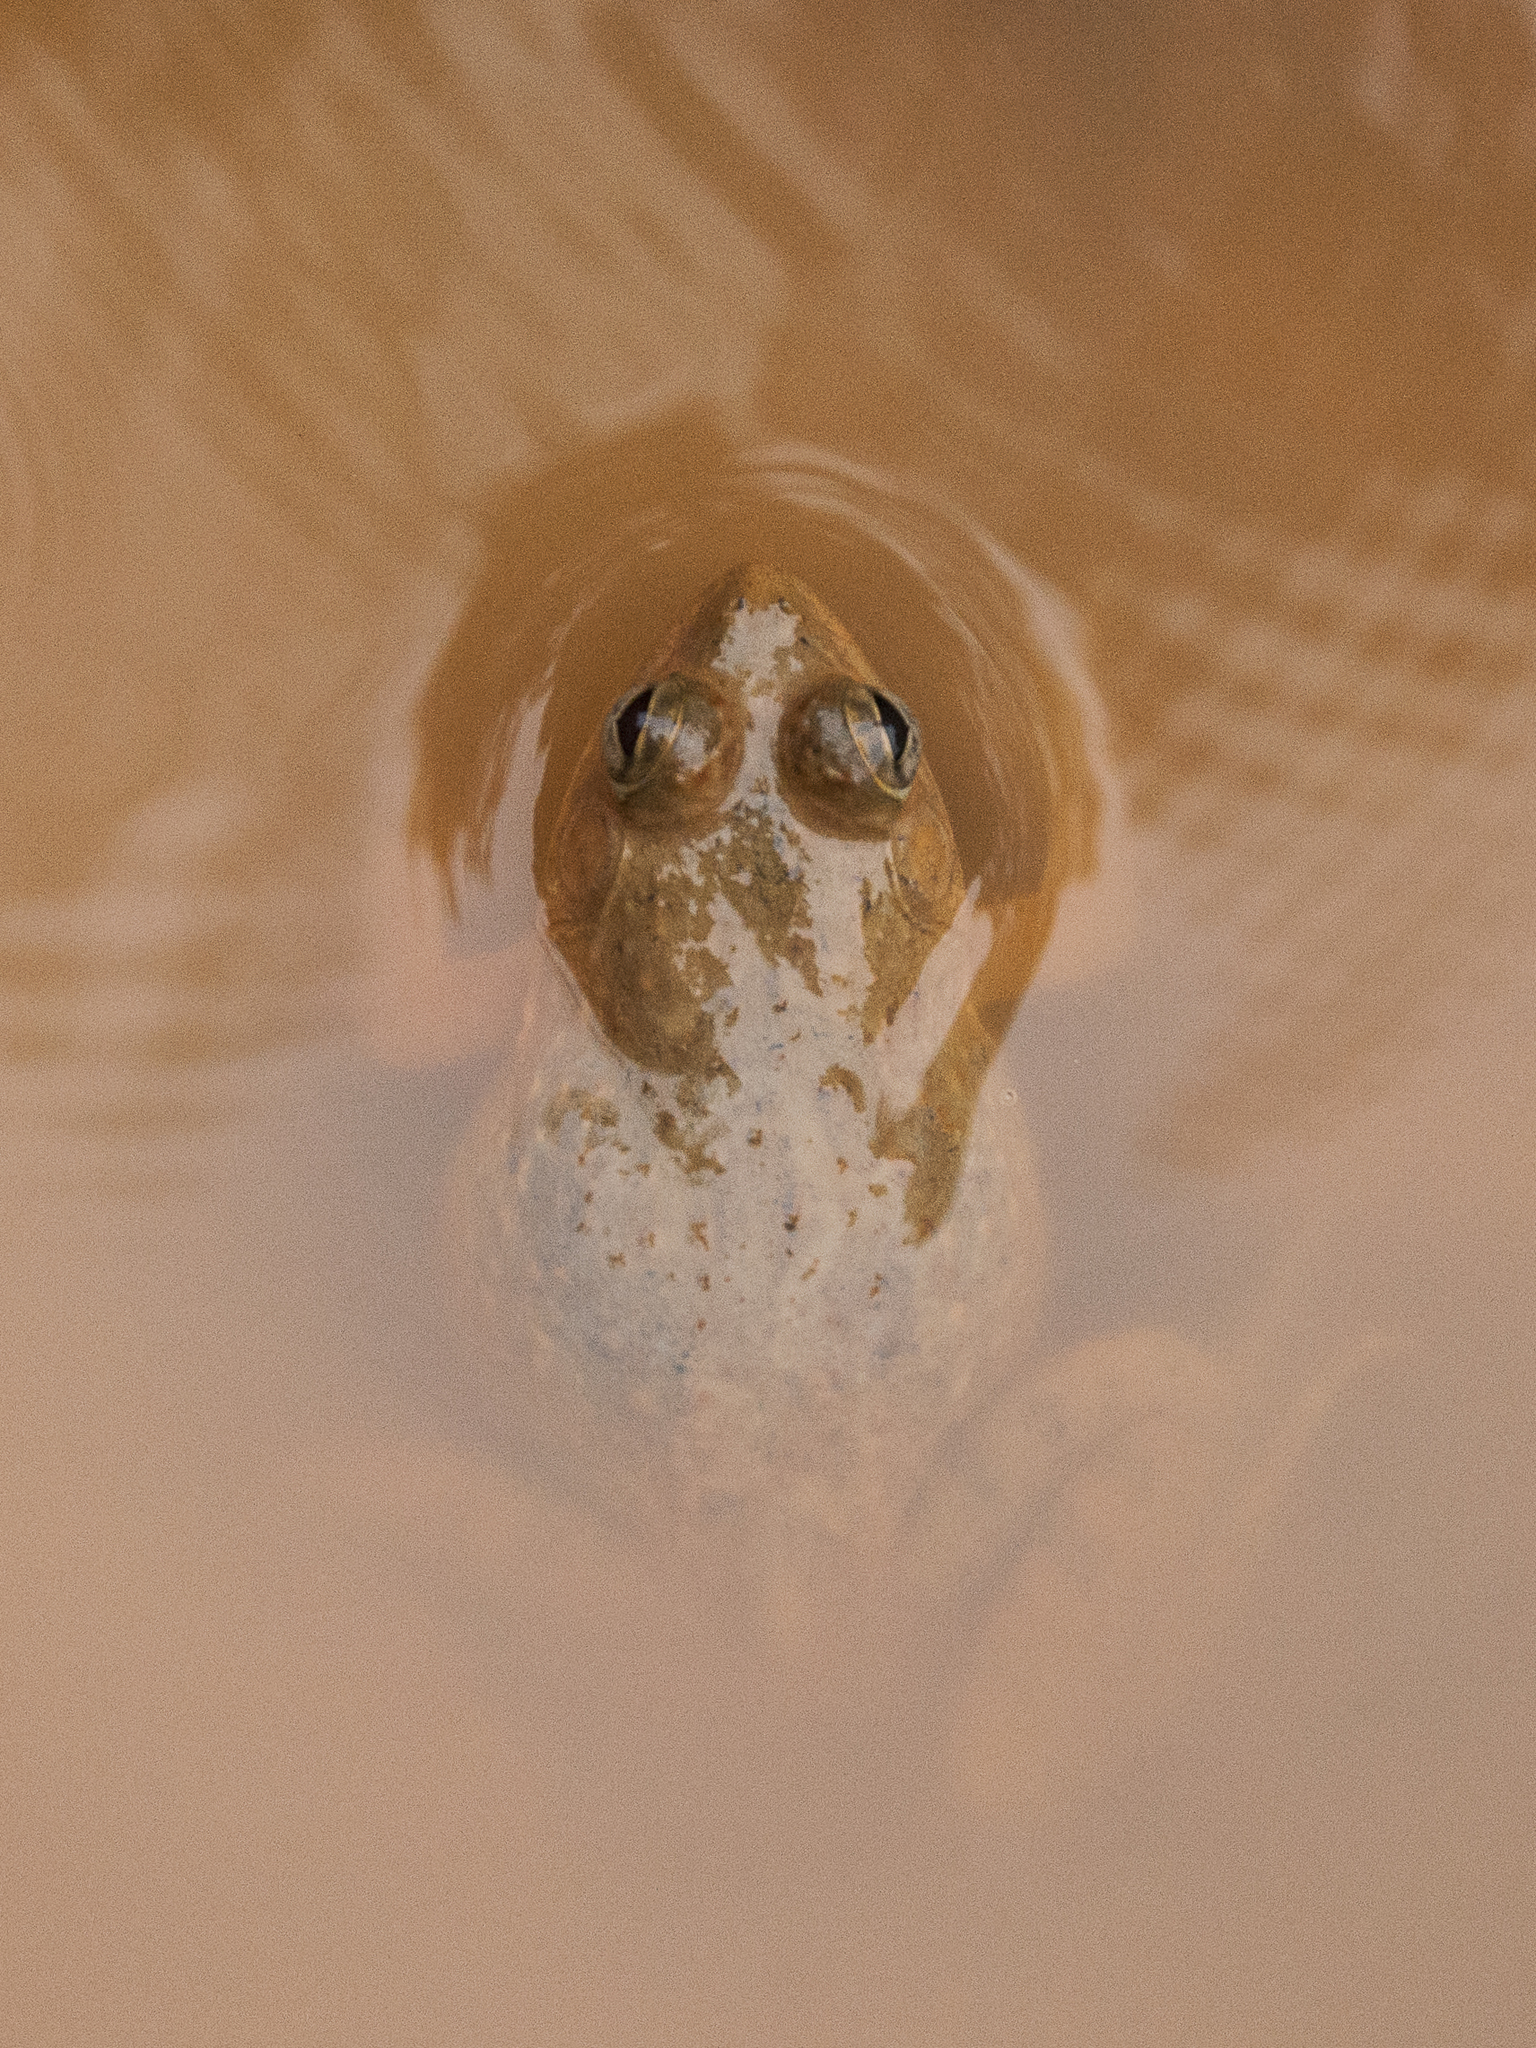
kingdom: Animalia
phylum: Chordata
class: Amphibia
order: Anura
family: Dicroglossidae
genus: Euphlyctis
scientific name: Euphlyctis cyanophlyctis
